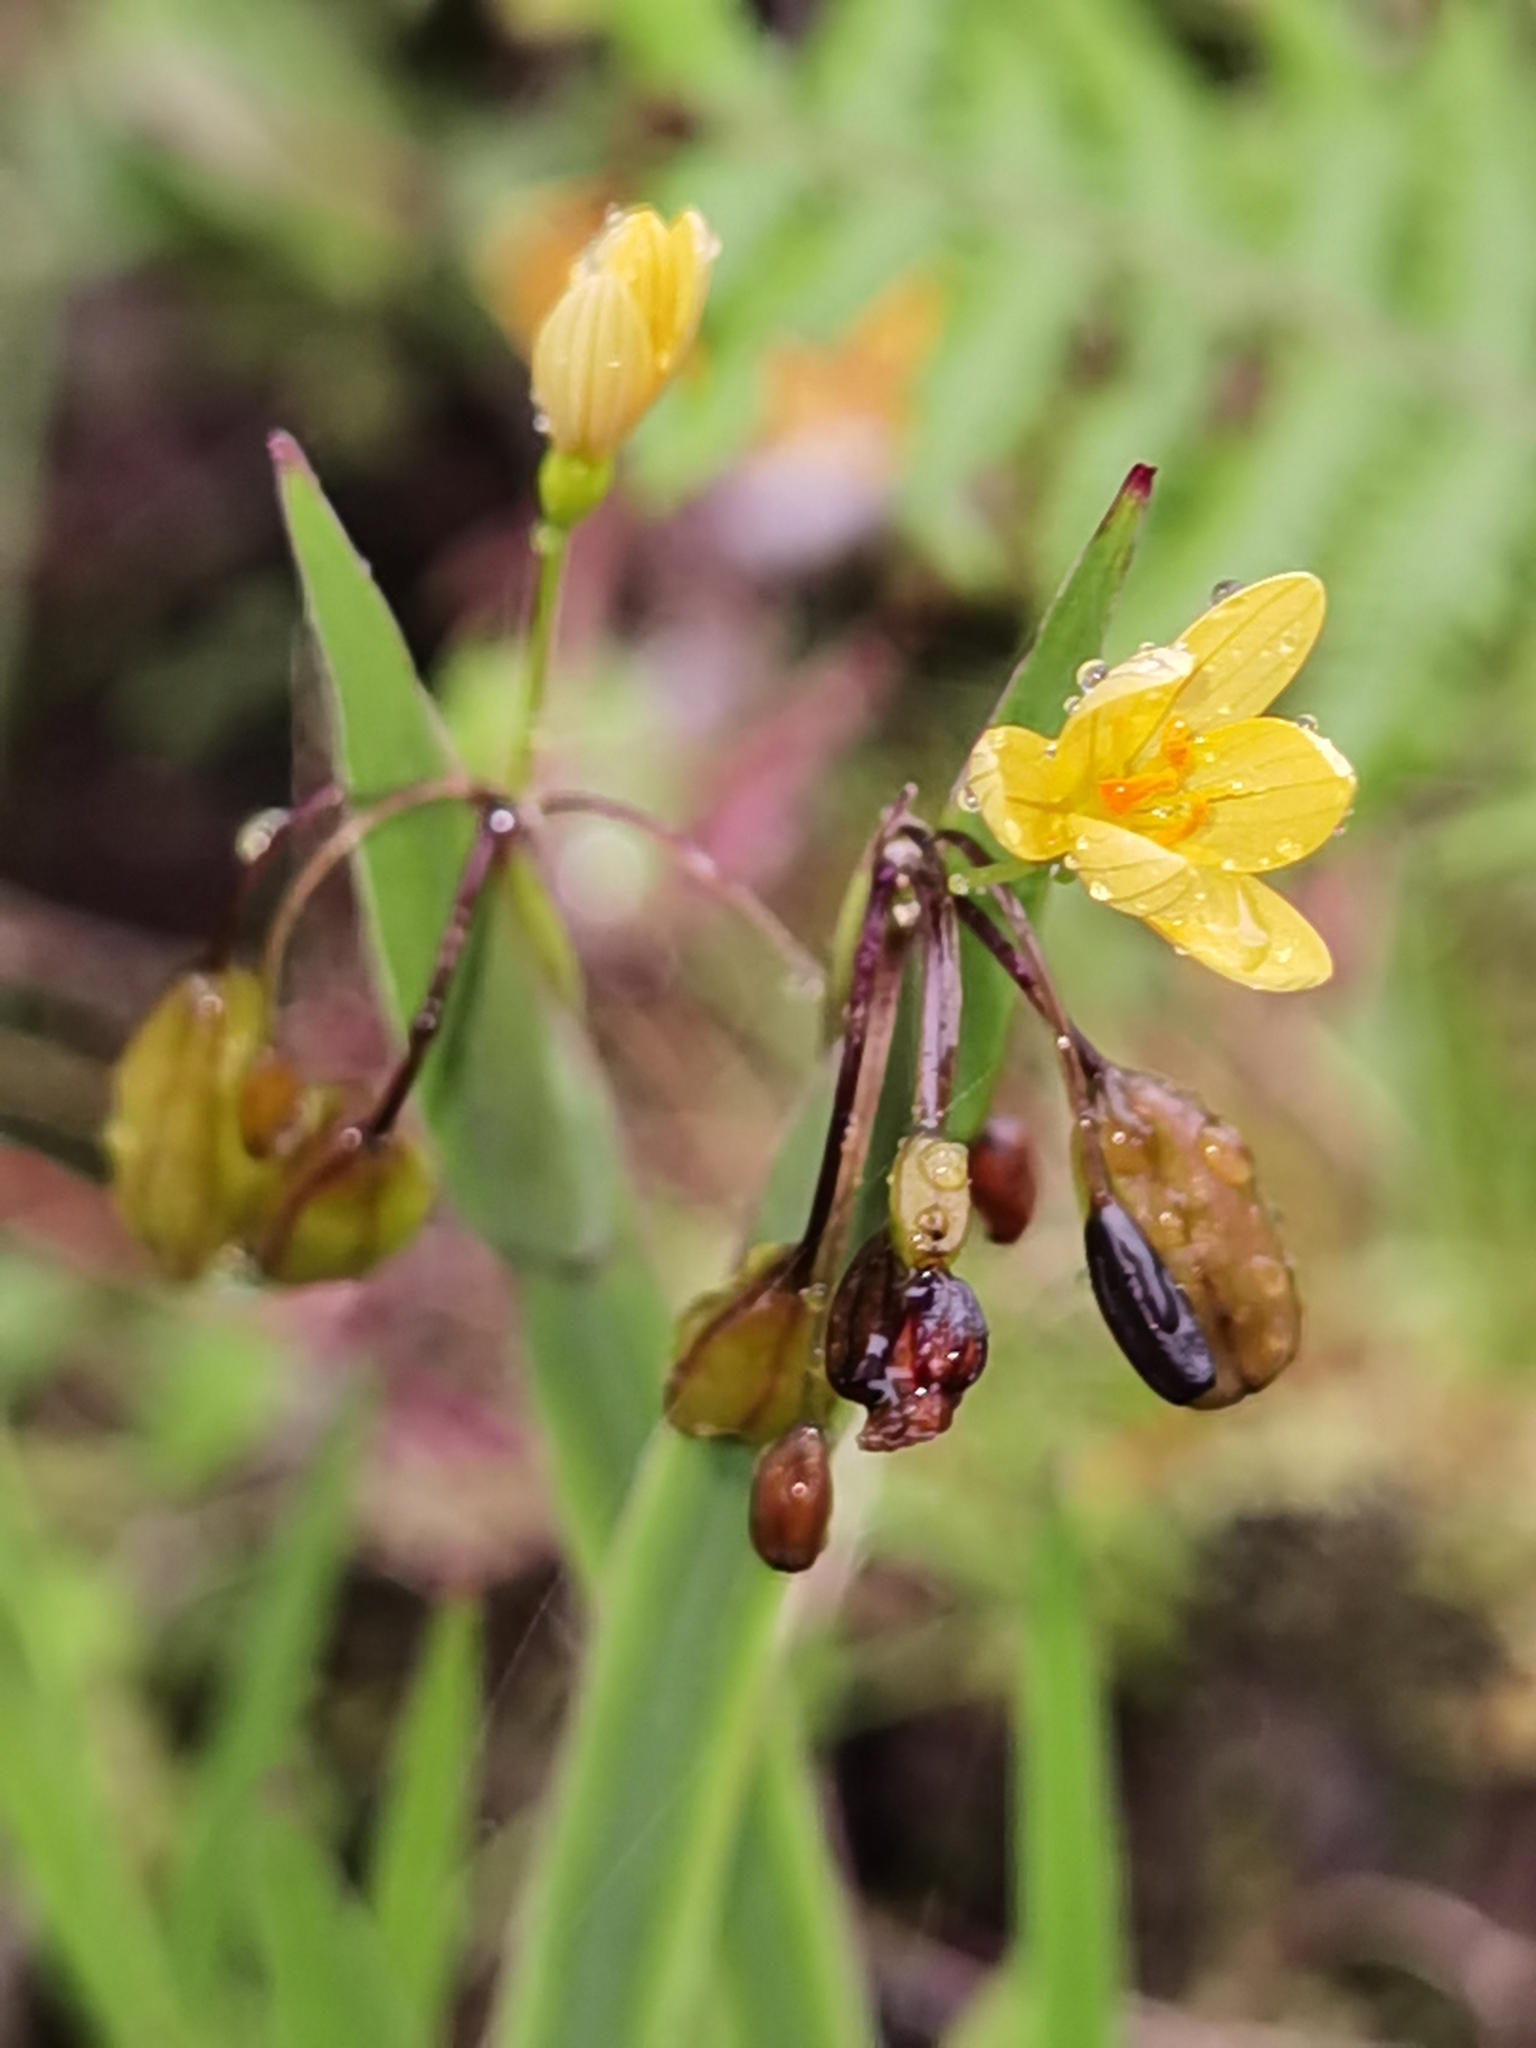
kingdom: Plantae
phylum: Tracheophyta
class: Liliopsida
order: Asparagales
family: Iridaceae
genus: Sisyrinchium
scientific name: Sisyrinchium tinctorium
